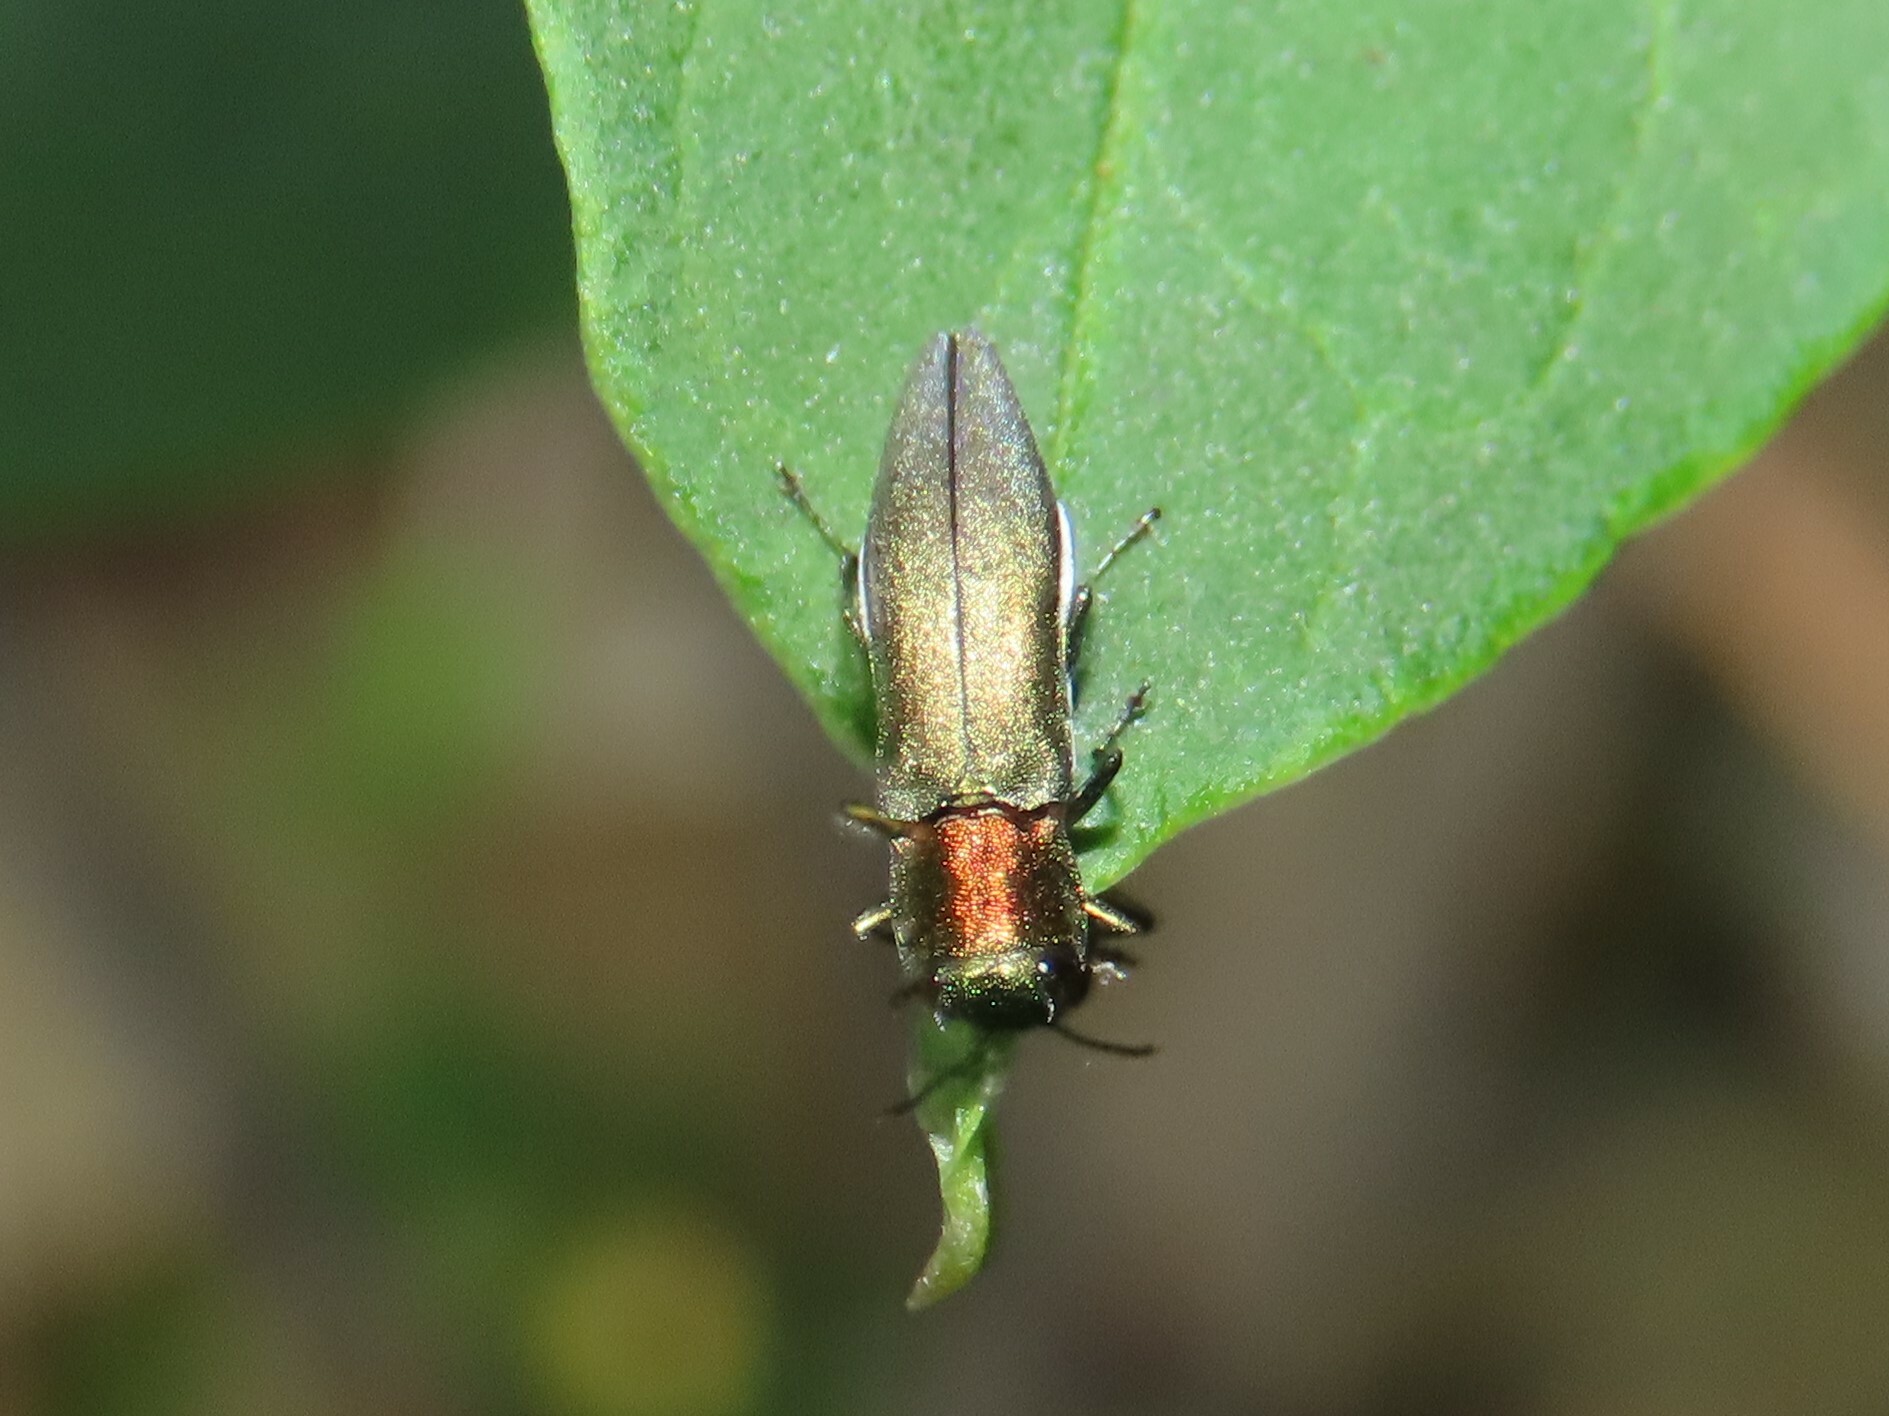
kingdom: Animalia
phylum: Arthropoda
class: Insecta
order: Coleoptera
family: Buprestidae
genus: Agrilus
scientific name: Agrilus smaragdifrons
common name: East asian buprestid
